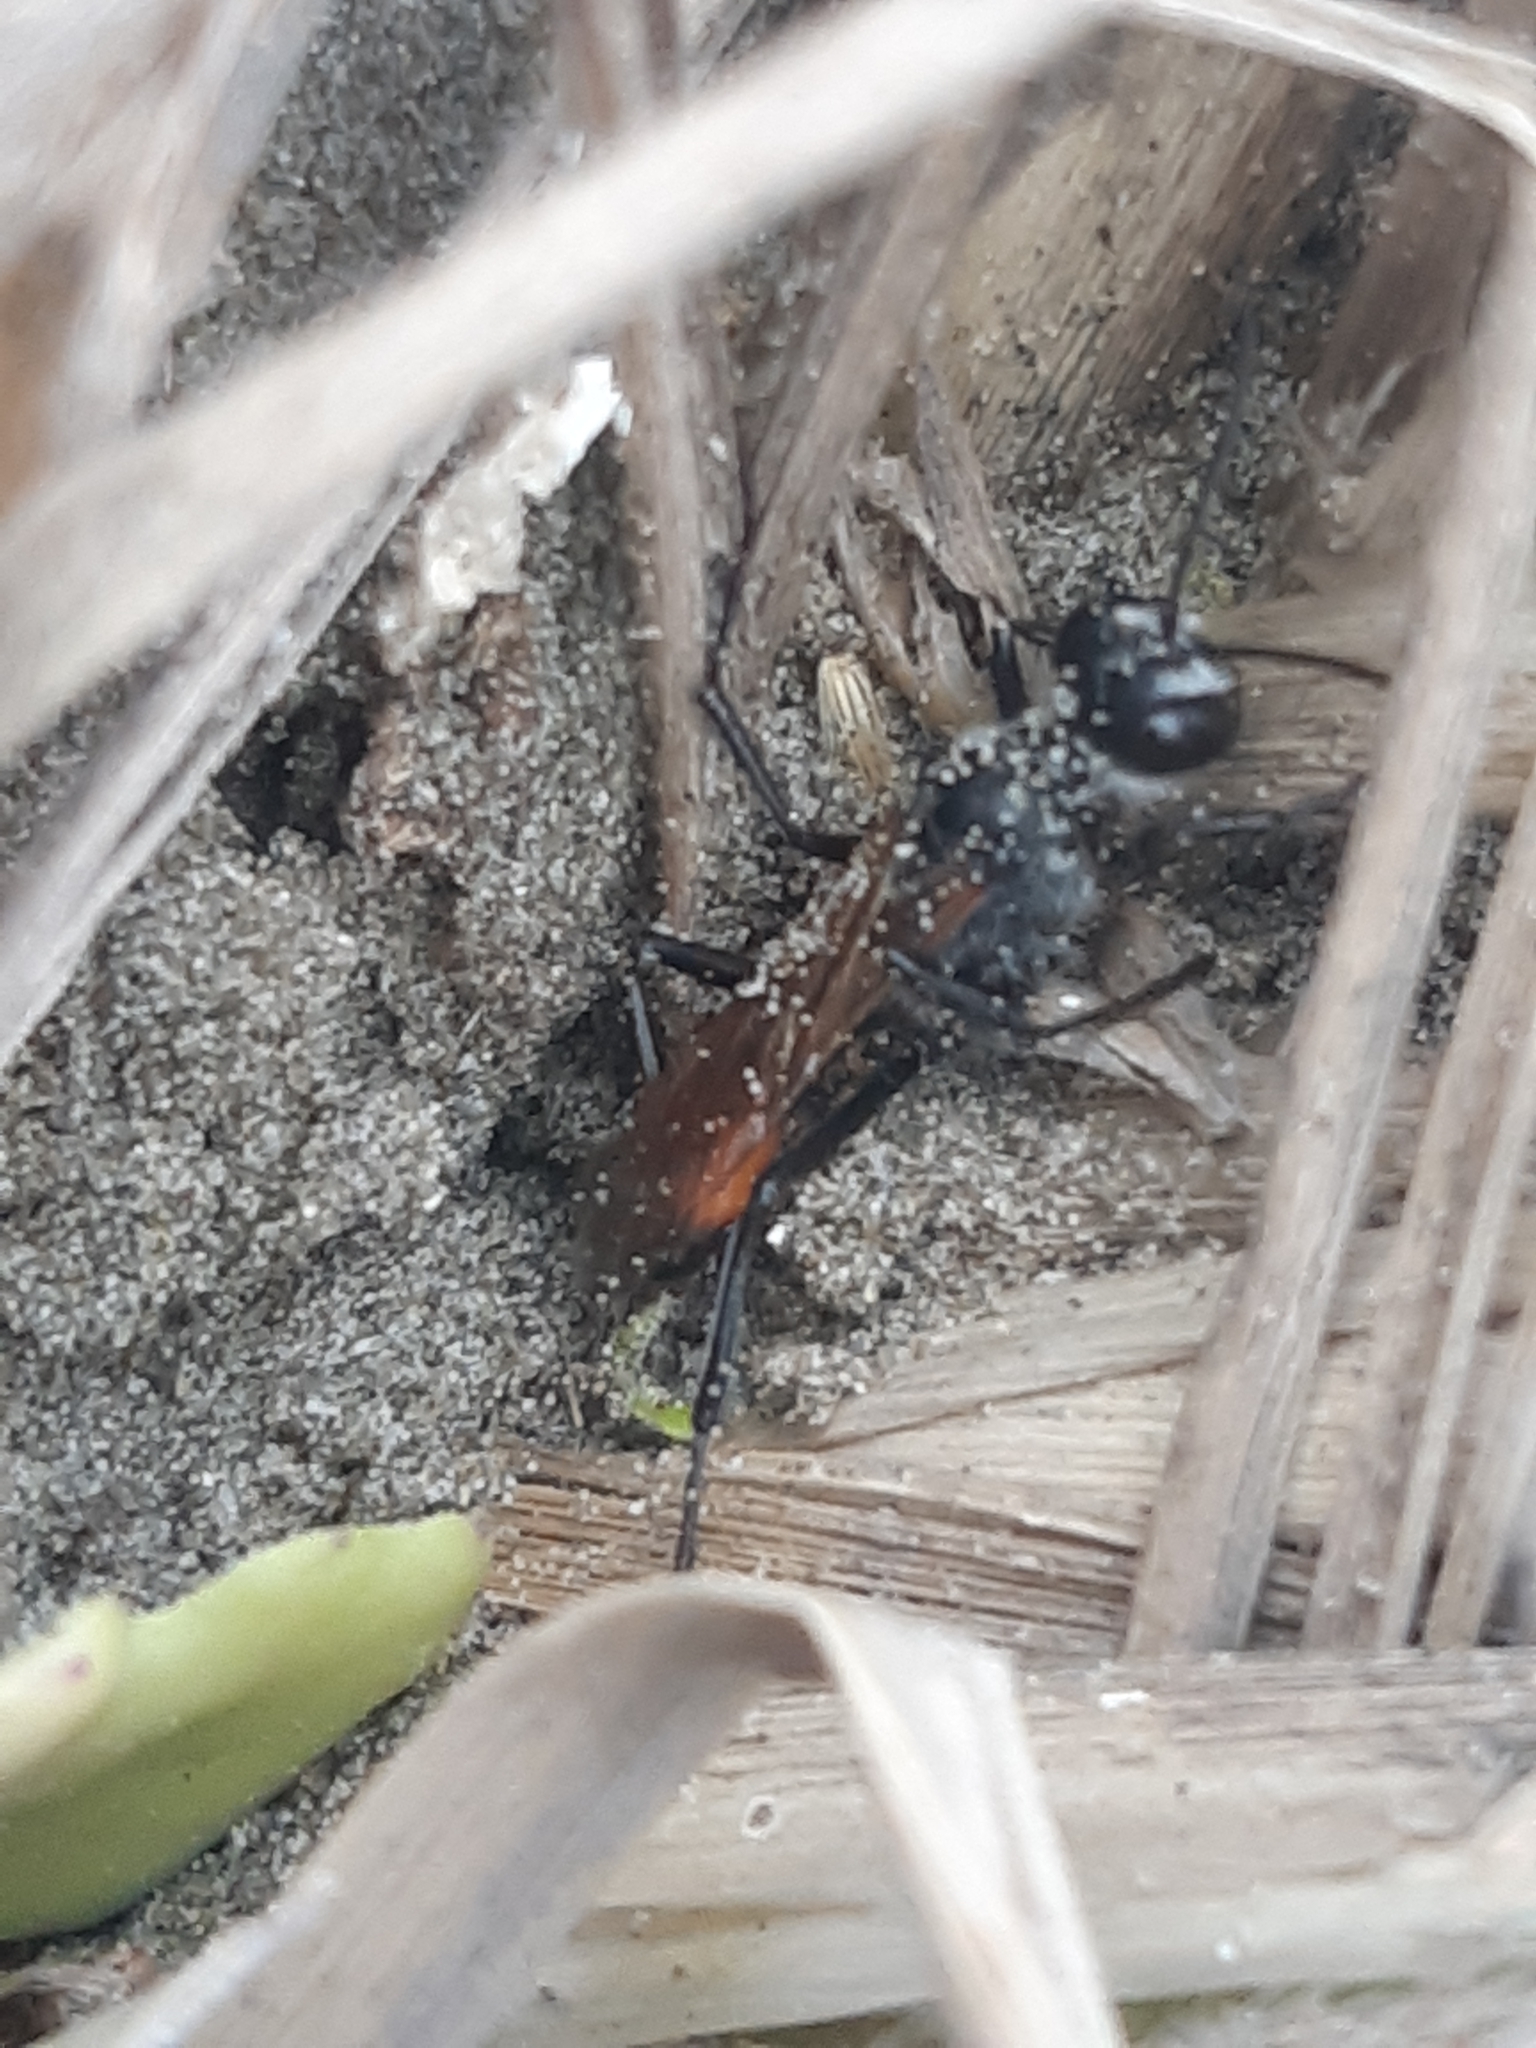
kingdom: Animalia
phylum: Arthropoda
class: Insecta
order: Hymenoptera
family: Sphecidae
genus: Podalonia
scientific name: Podalonia tydei
